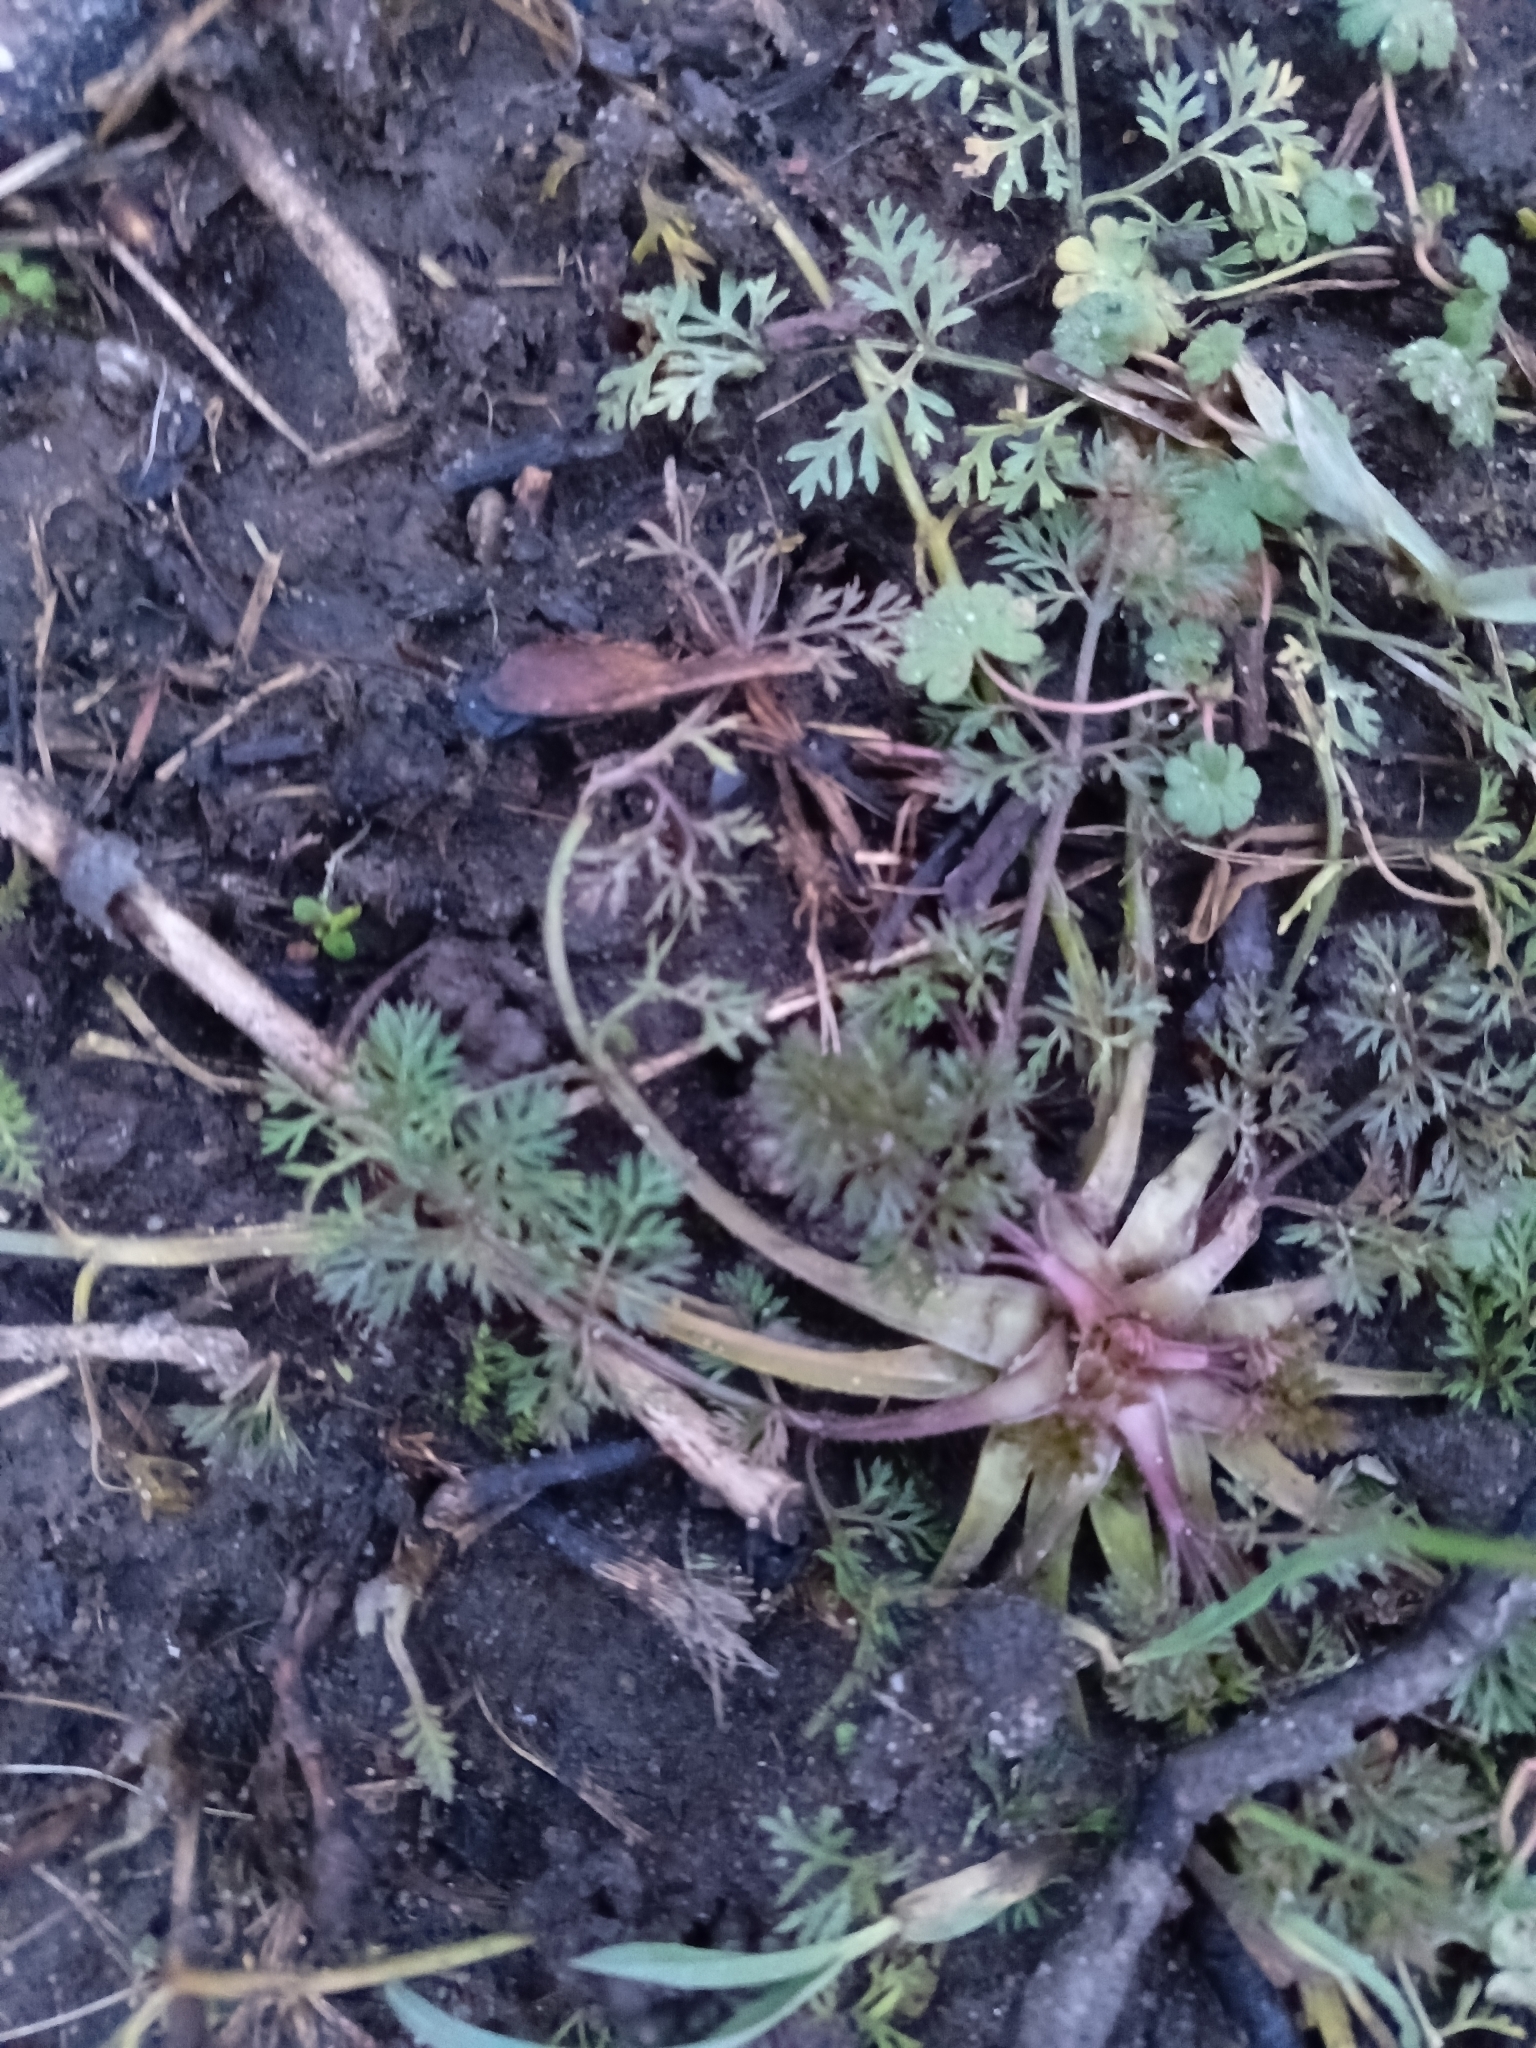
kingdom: Plantae
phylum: Tracheophyta
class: Magnoliopsida
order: Apiales
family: Apiaceae
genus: Anthriscus
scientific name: Anthriscus sylvestris
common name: Cow parsley
